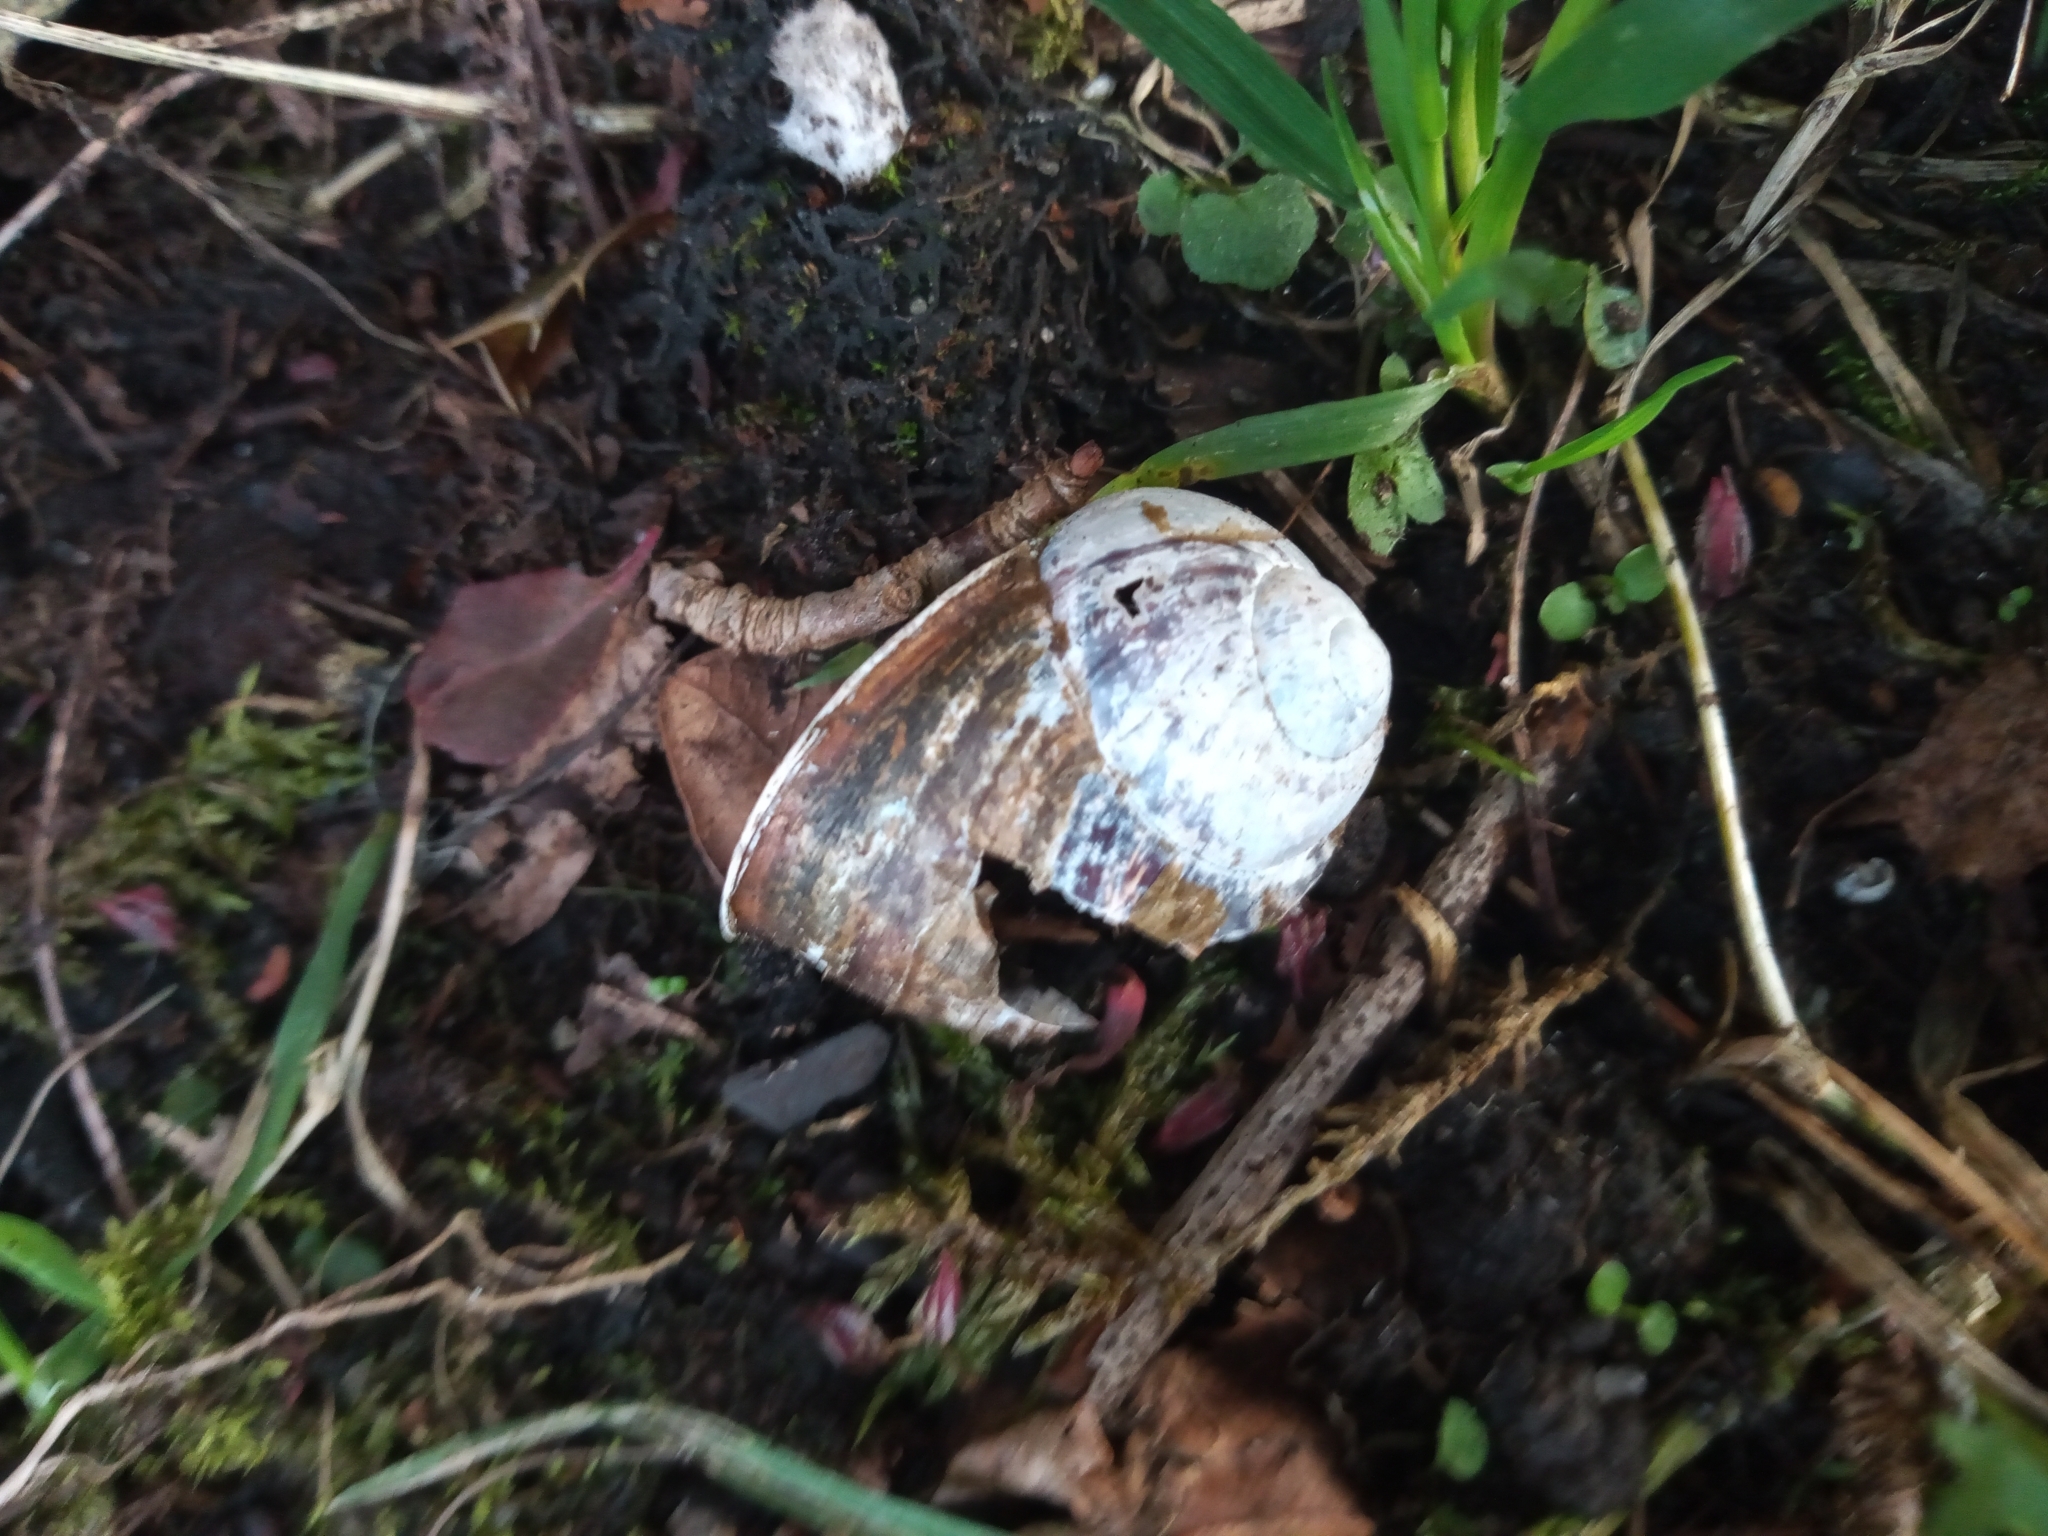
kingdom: Animalia
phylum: Mollusca
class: Gastropoda
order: Stylommatophora
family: Helicidae
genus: Cornu
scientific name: Cornu aspersum
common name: Brown garden snail
